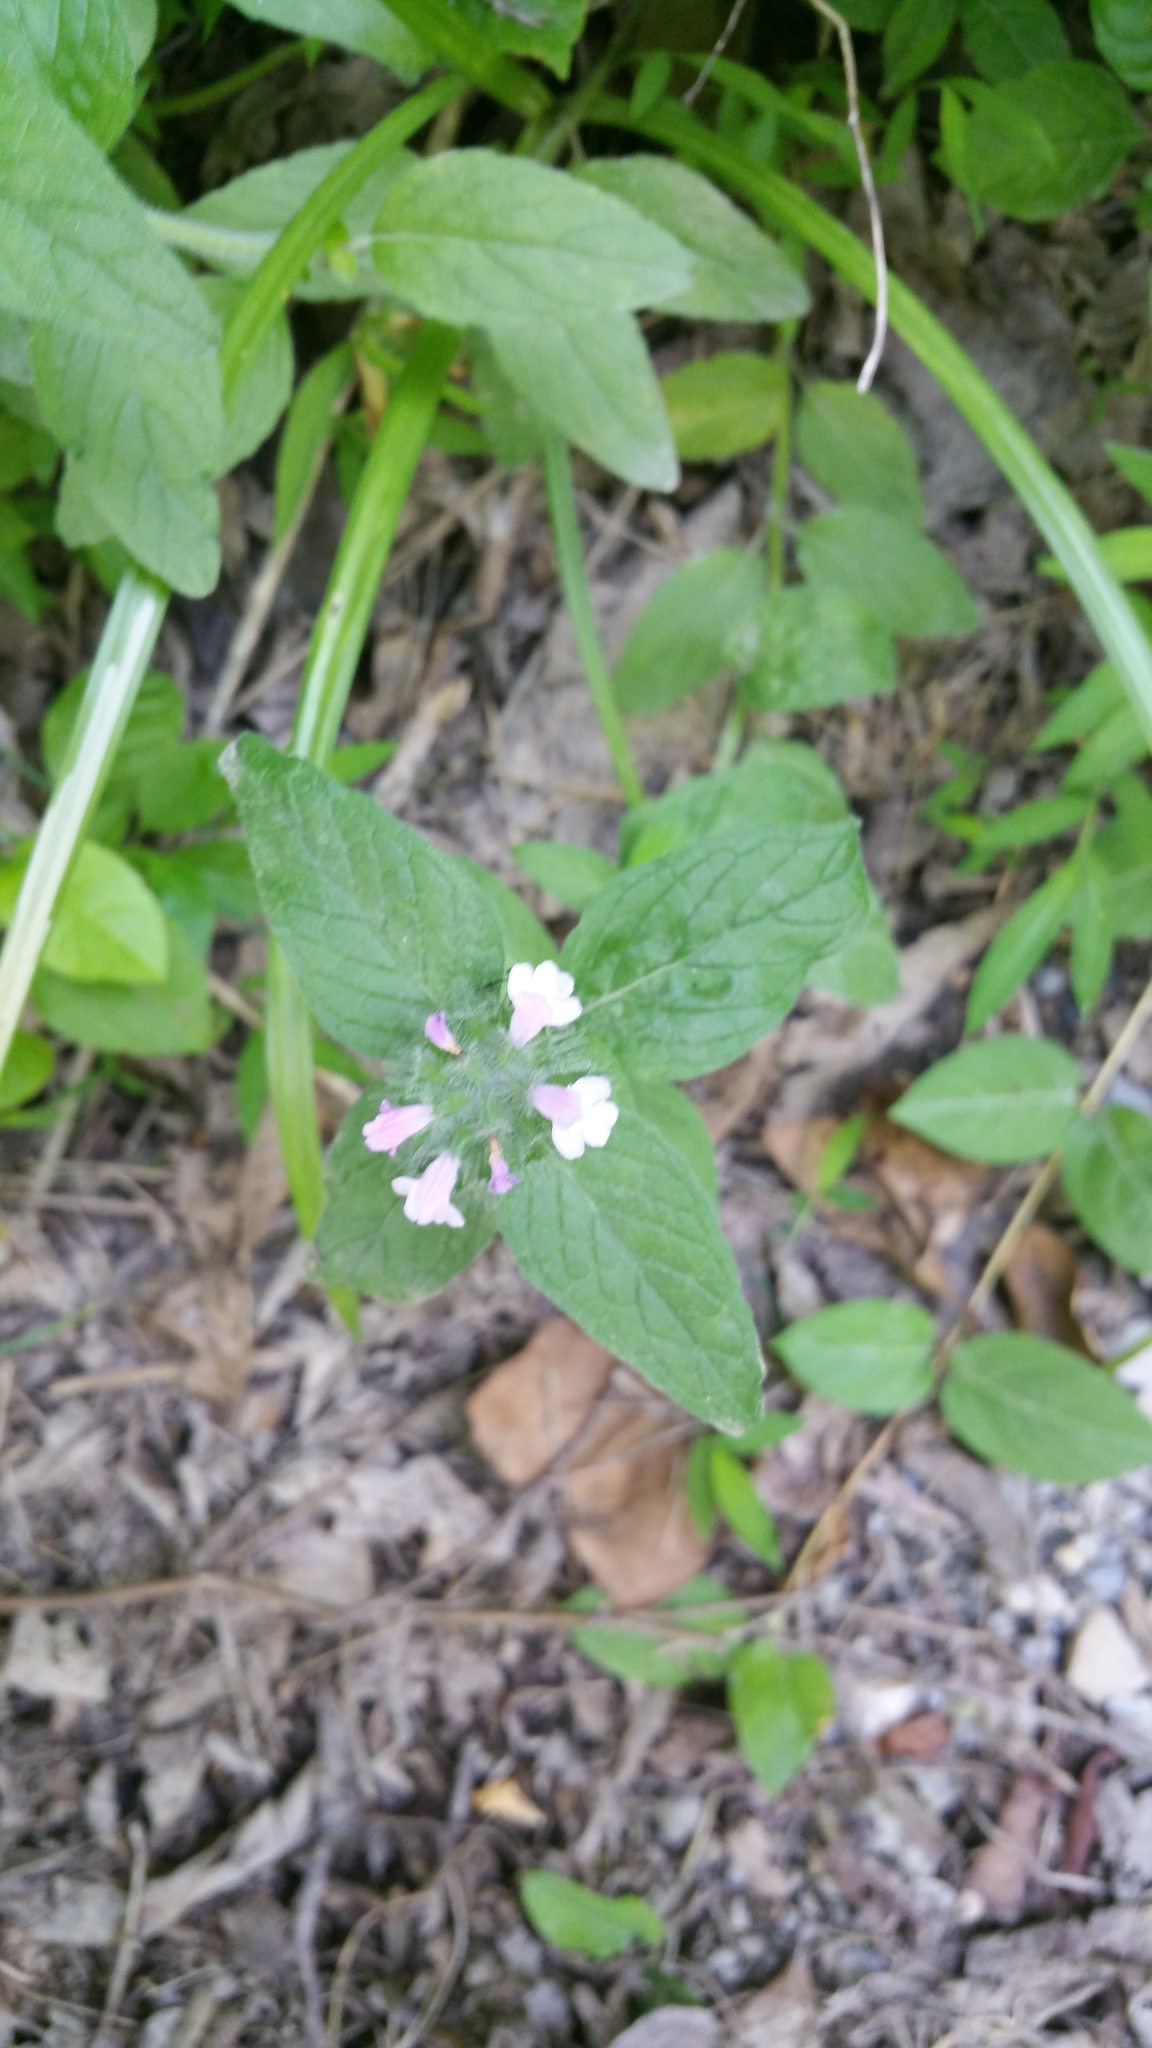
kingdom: Plantae
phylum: Tracheophyta
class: Magnoliopsida
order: Lamiales
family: Lamiaceae
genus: Clinopodium
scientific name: Clinopodium vulgare
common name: Wild basil
